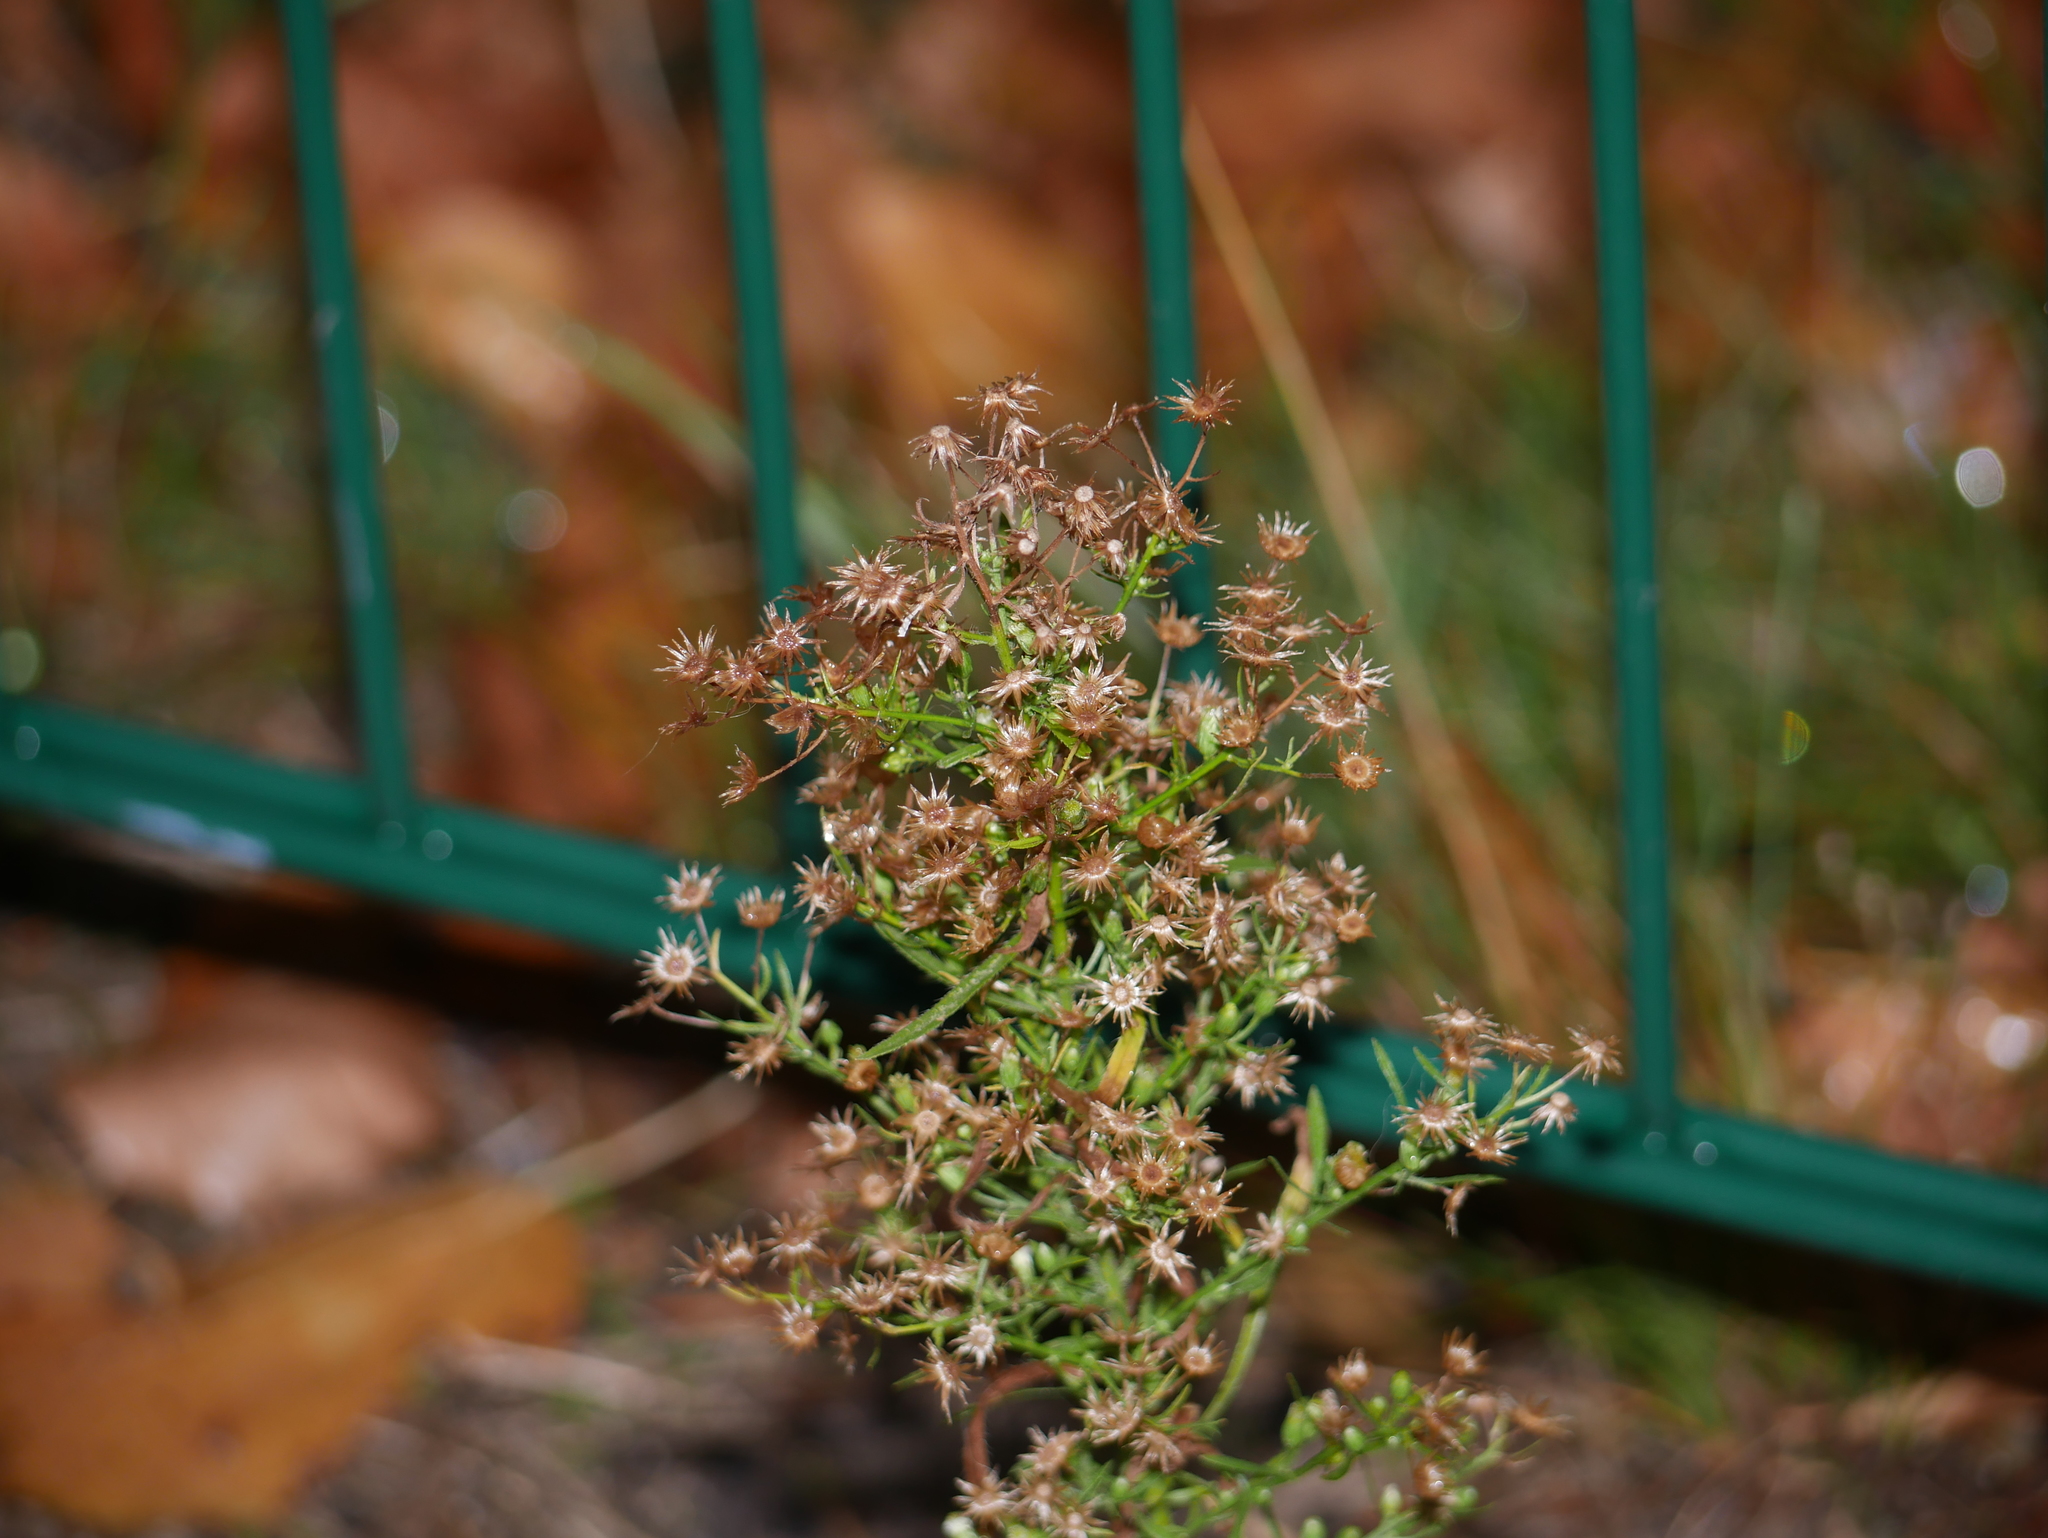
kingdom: Plantae
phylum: Tracheophyta
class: Magnoliopsida
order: Asterales
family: Asteraceae
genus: Erigeron
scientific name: Erigeron canadensis
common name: Canadian fleabane
